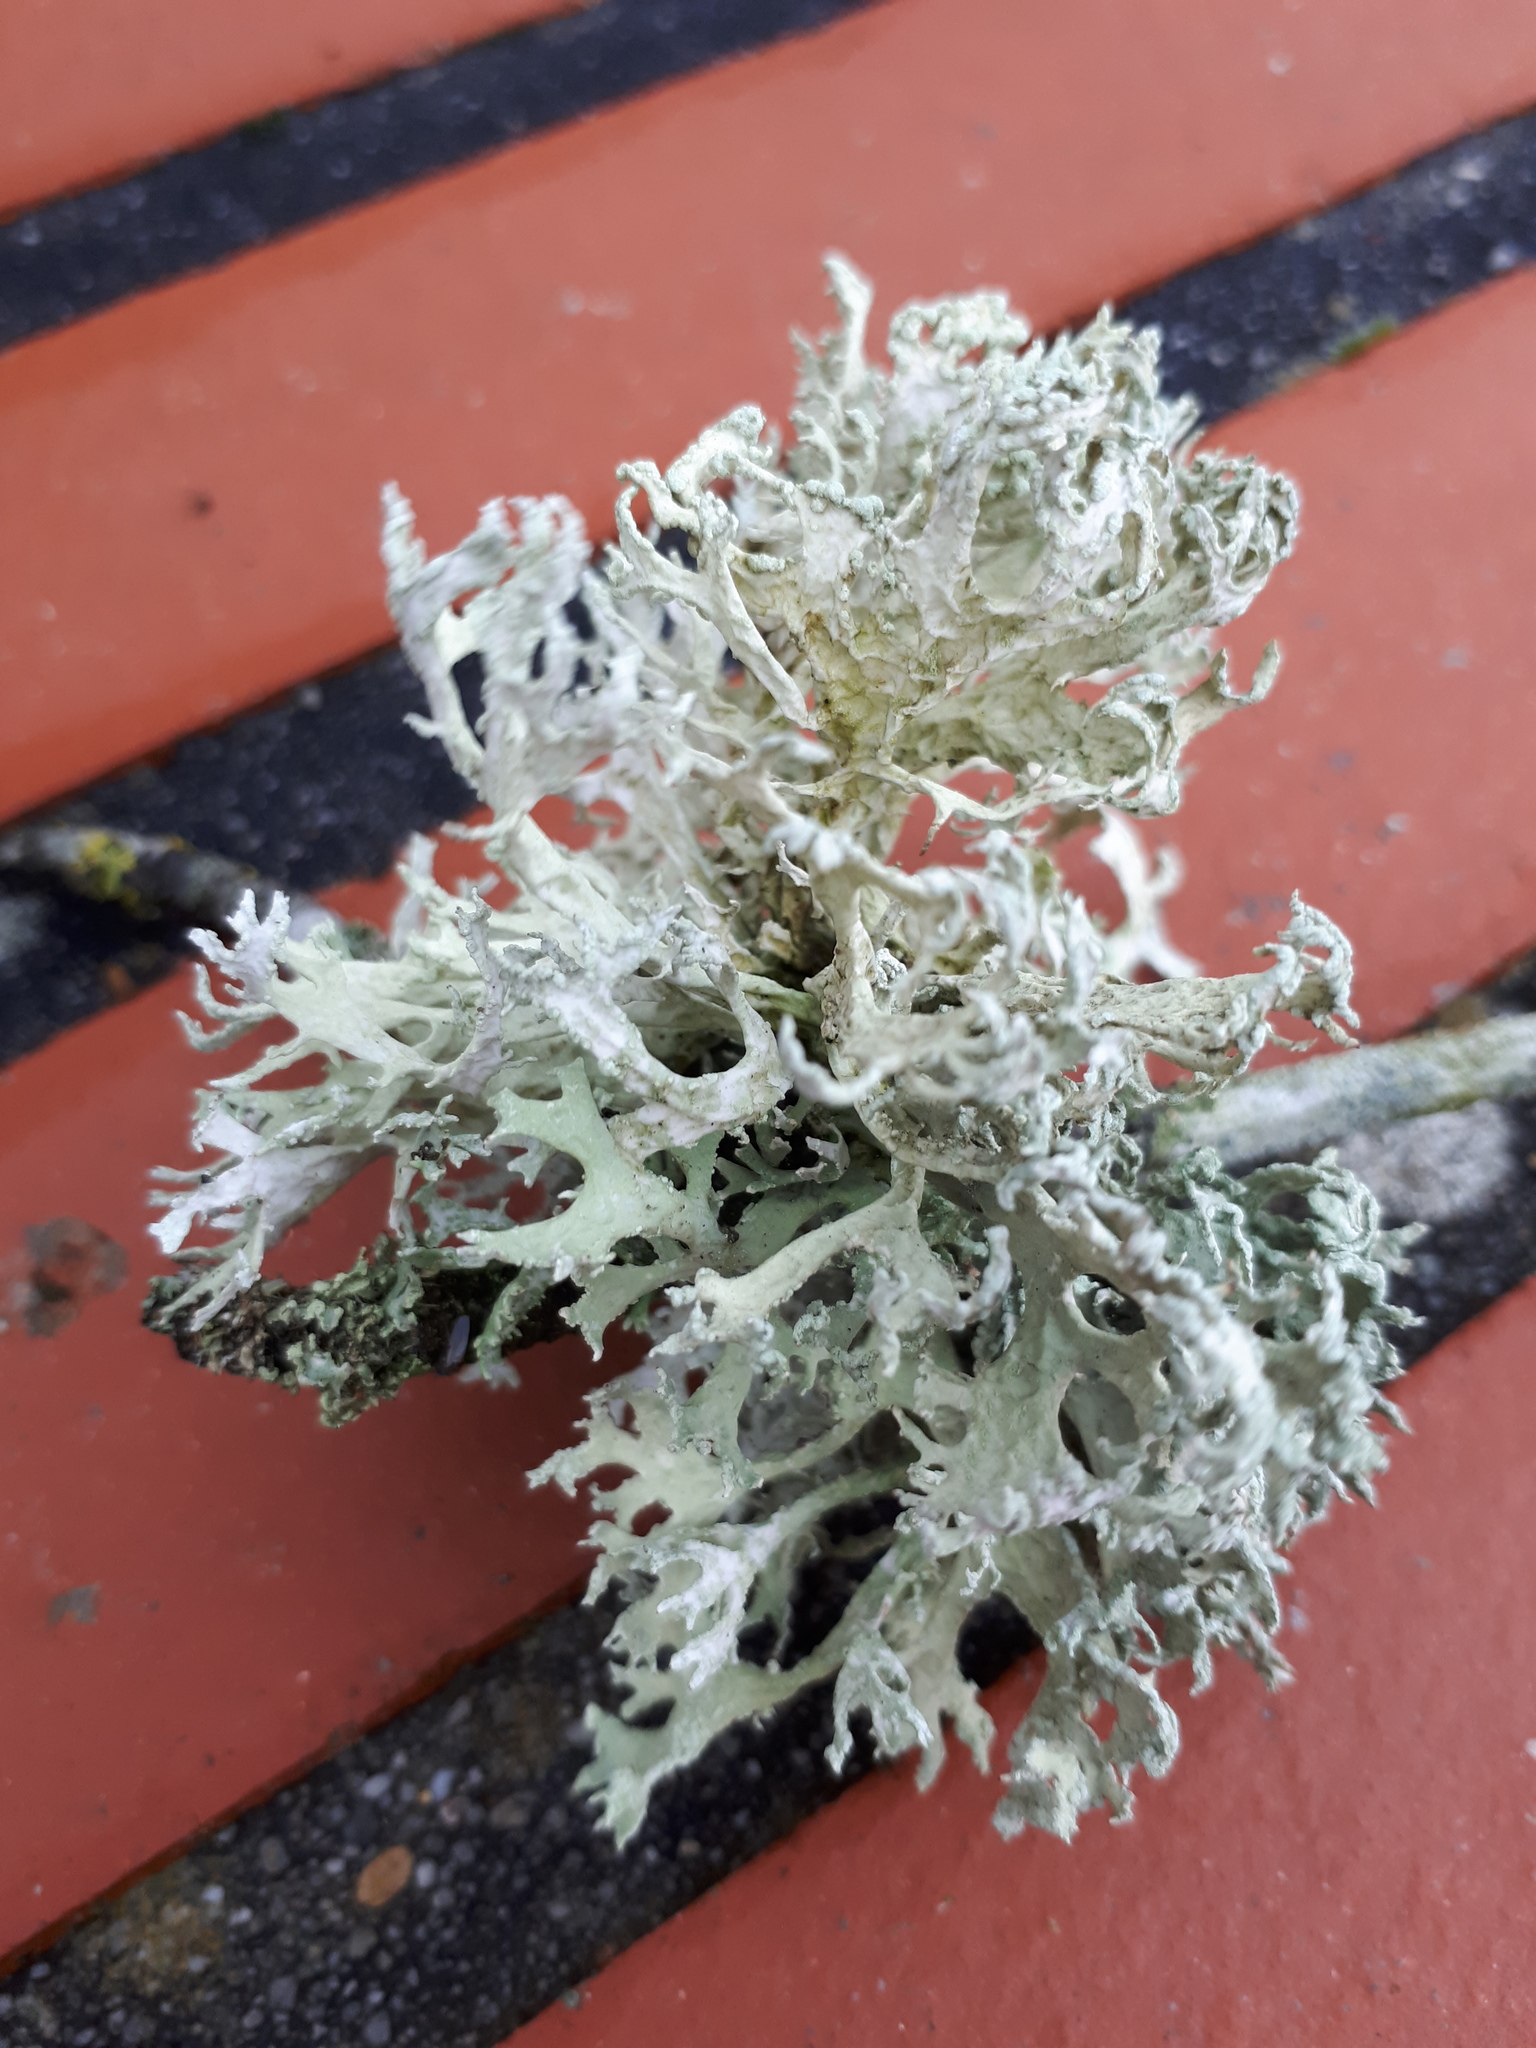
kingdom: Fungi
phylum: Ascomycota
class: Lecanoromycetes
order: Lecanorales
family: Parmeliaceae
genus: Evernia
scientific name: Evernia prunastri
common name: Oak moss
